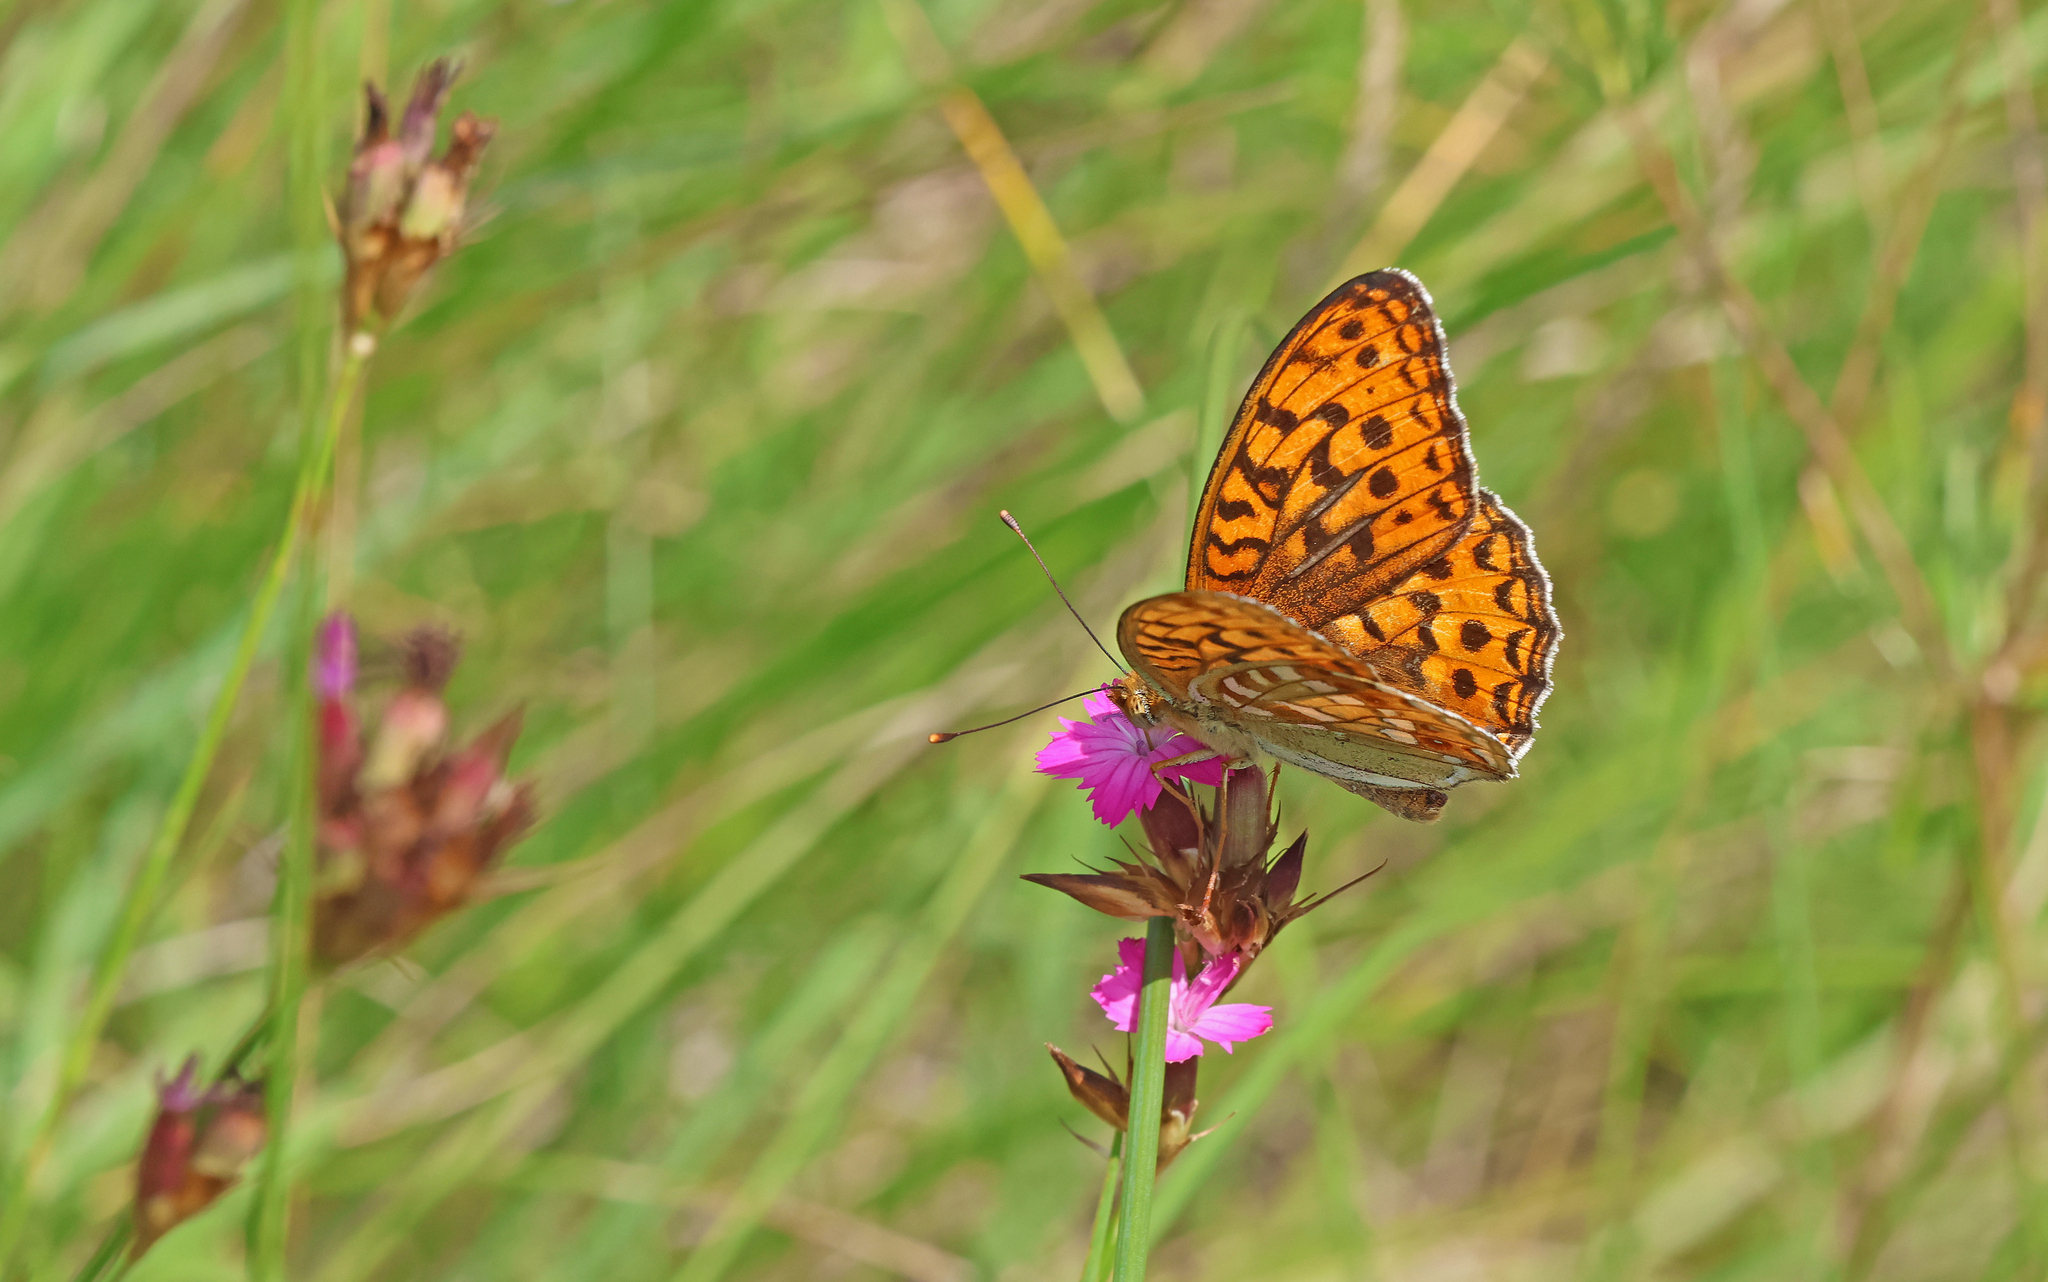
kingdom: Animalia
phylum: Arthropoda
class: Insecta
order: Lepidoptera
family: Nymphalidae
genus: Fabriciana
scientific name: Fabriciana adippe
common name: High brown fritillary
